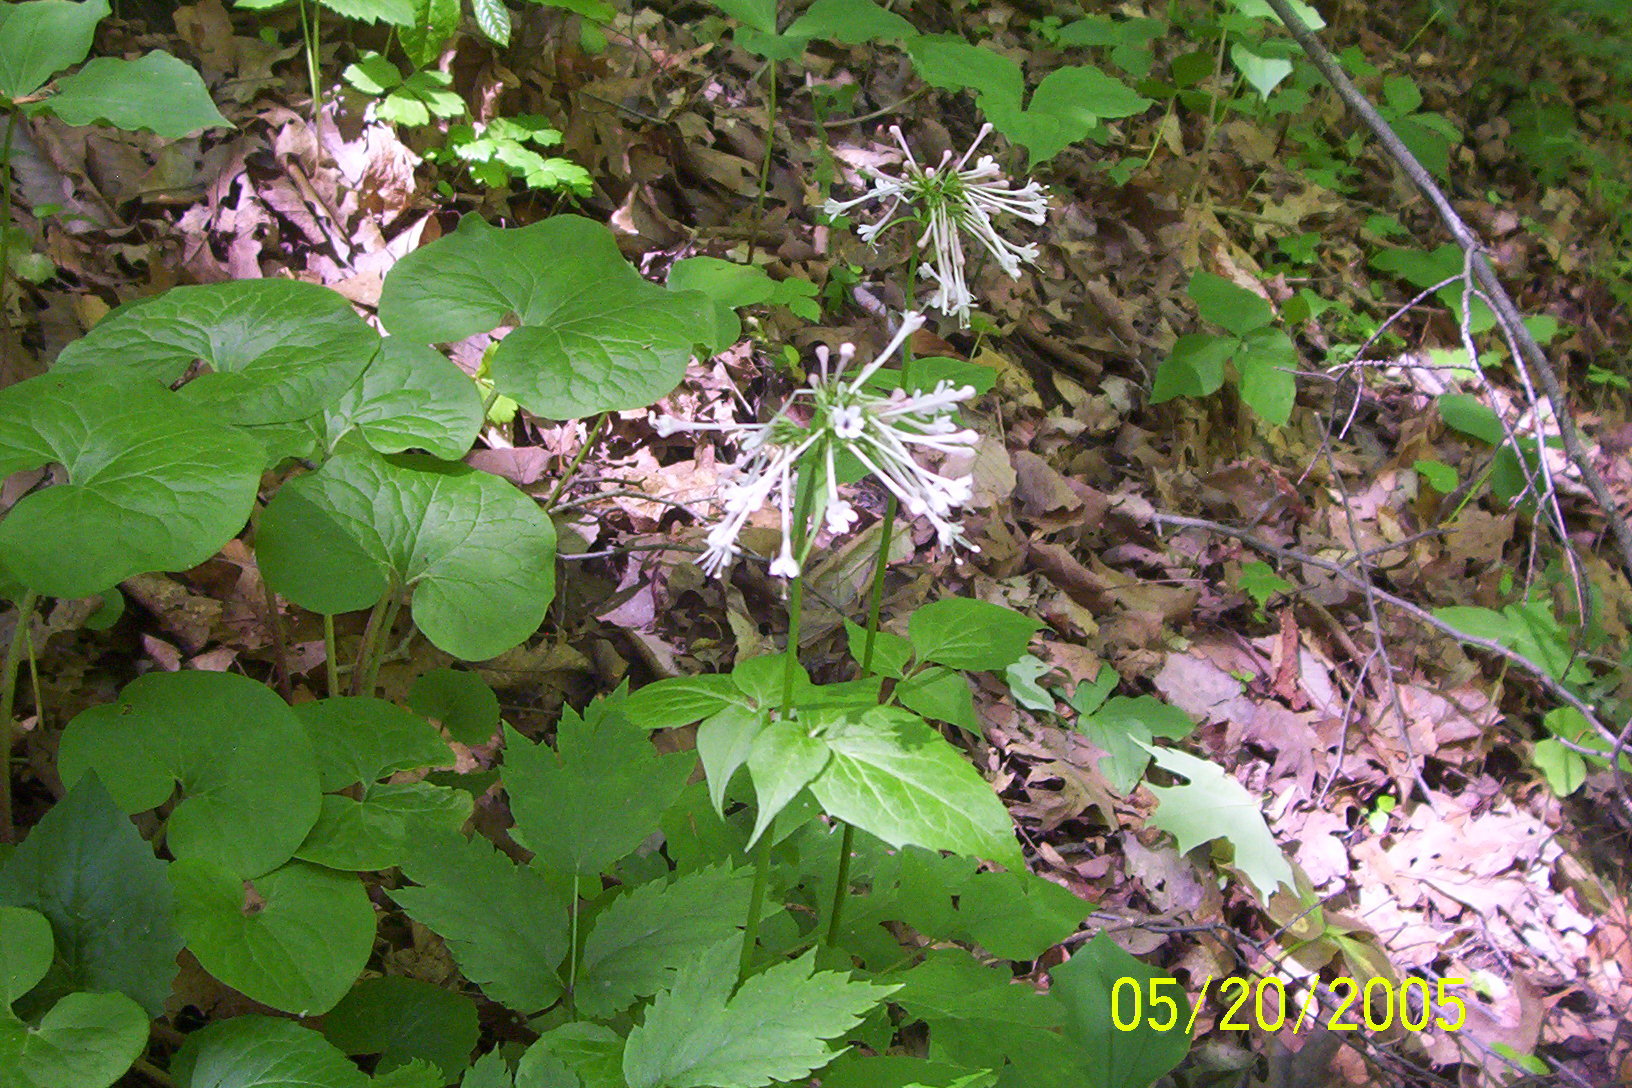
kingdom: Plantae
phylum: Tracheophyta
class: Magnoliopsida
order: Dipsacales
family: Caprifoliaceae
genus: Valeriana
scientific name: Valeriana pauciflora
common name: Long-tube valeriana
